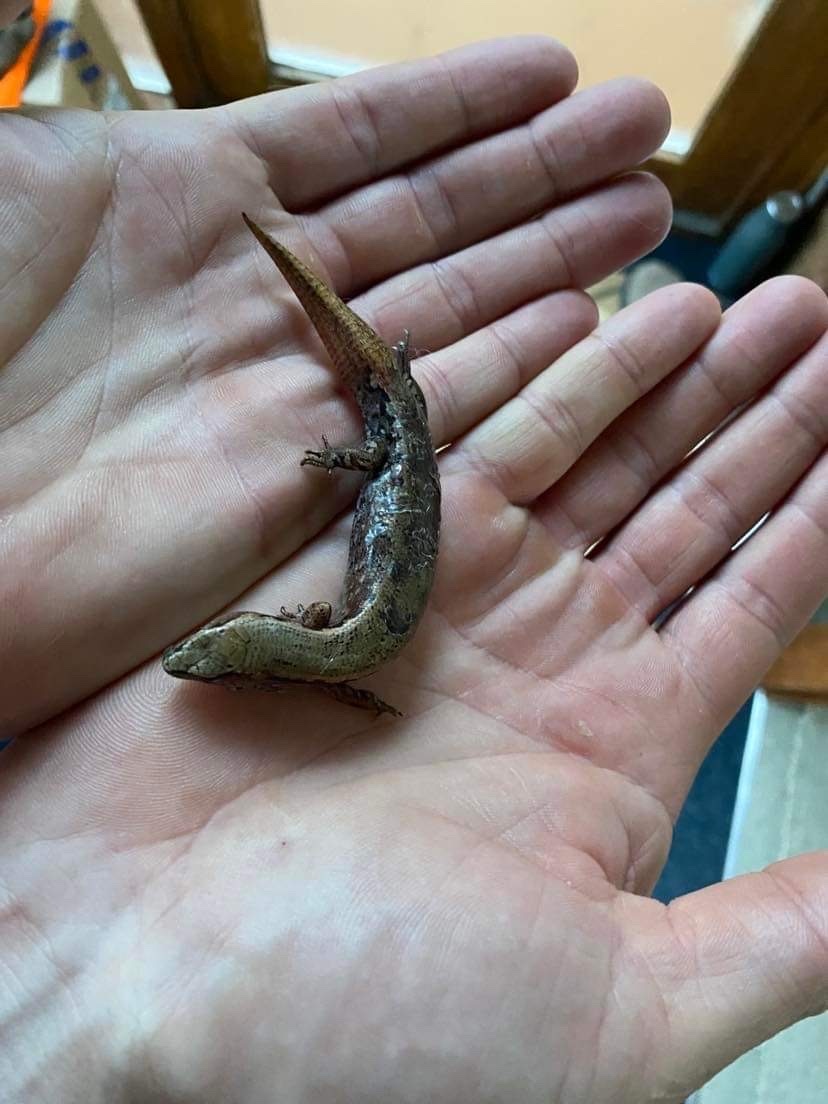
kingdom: Animalia
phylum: Chordata
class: Squamata
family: Scincidae
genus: Oligosoma
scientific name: Oligosoma ornatum
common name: Gray's ornate skink
